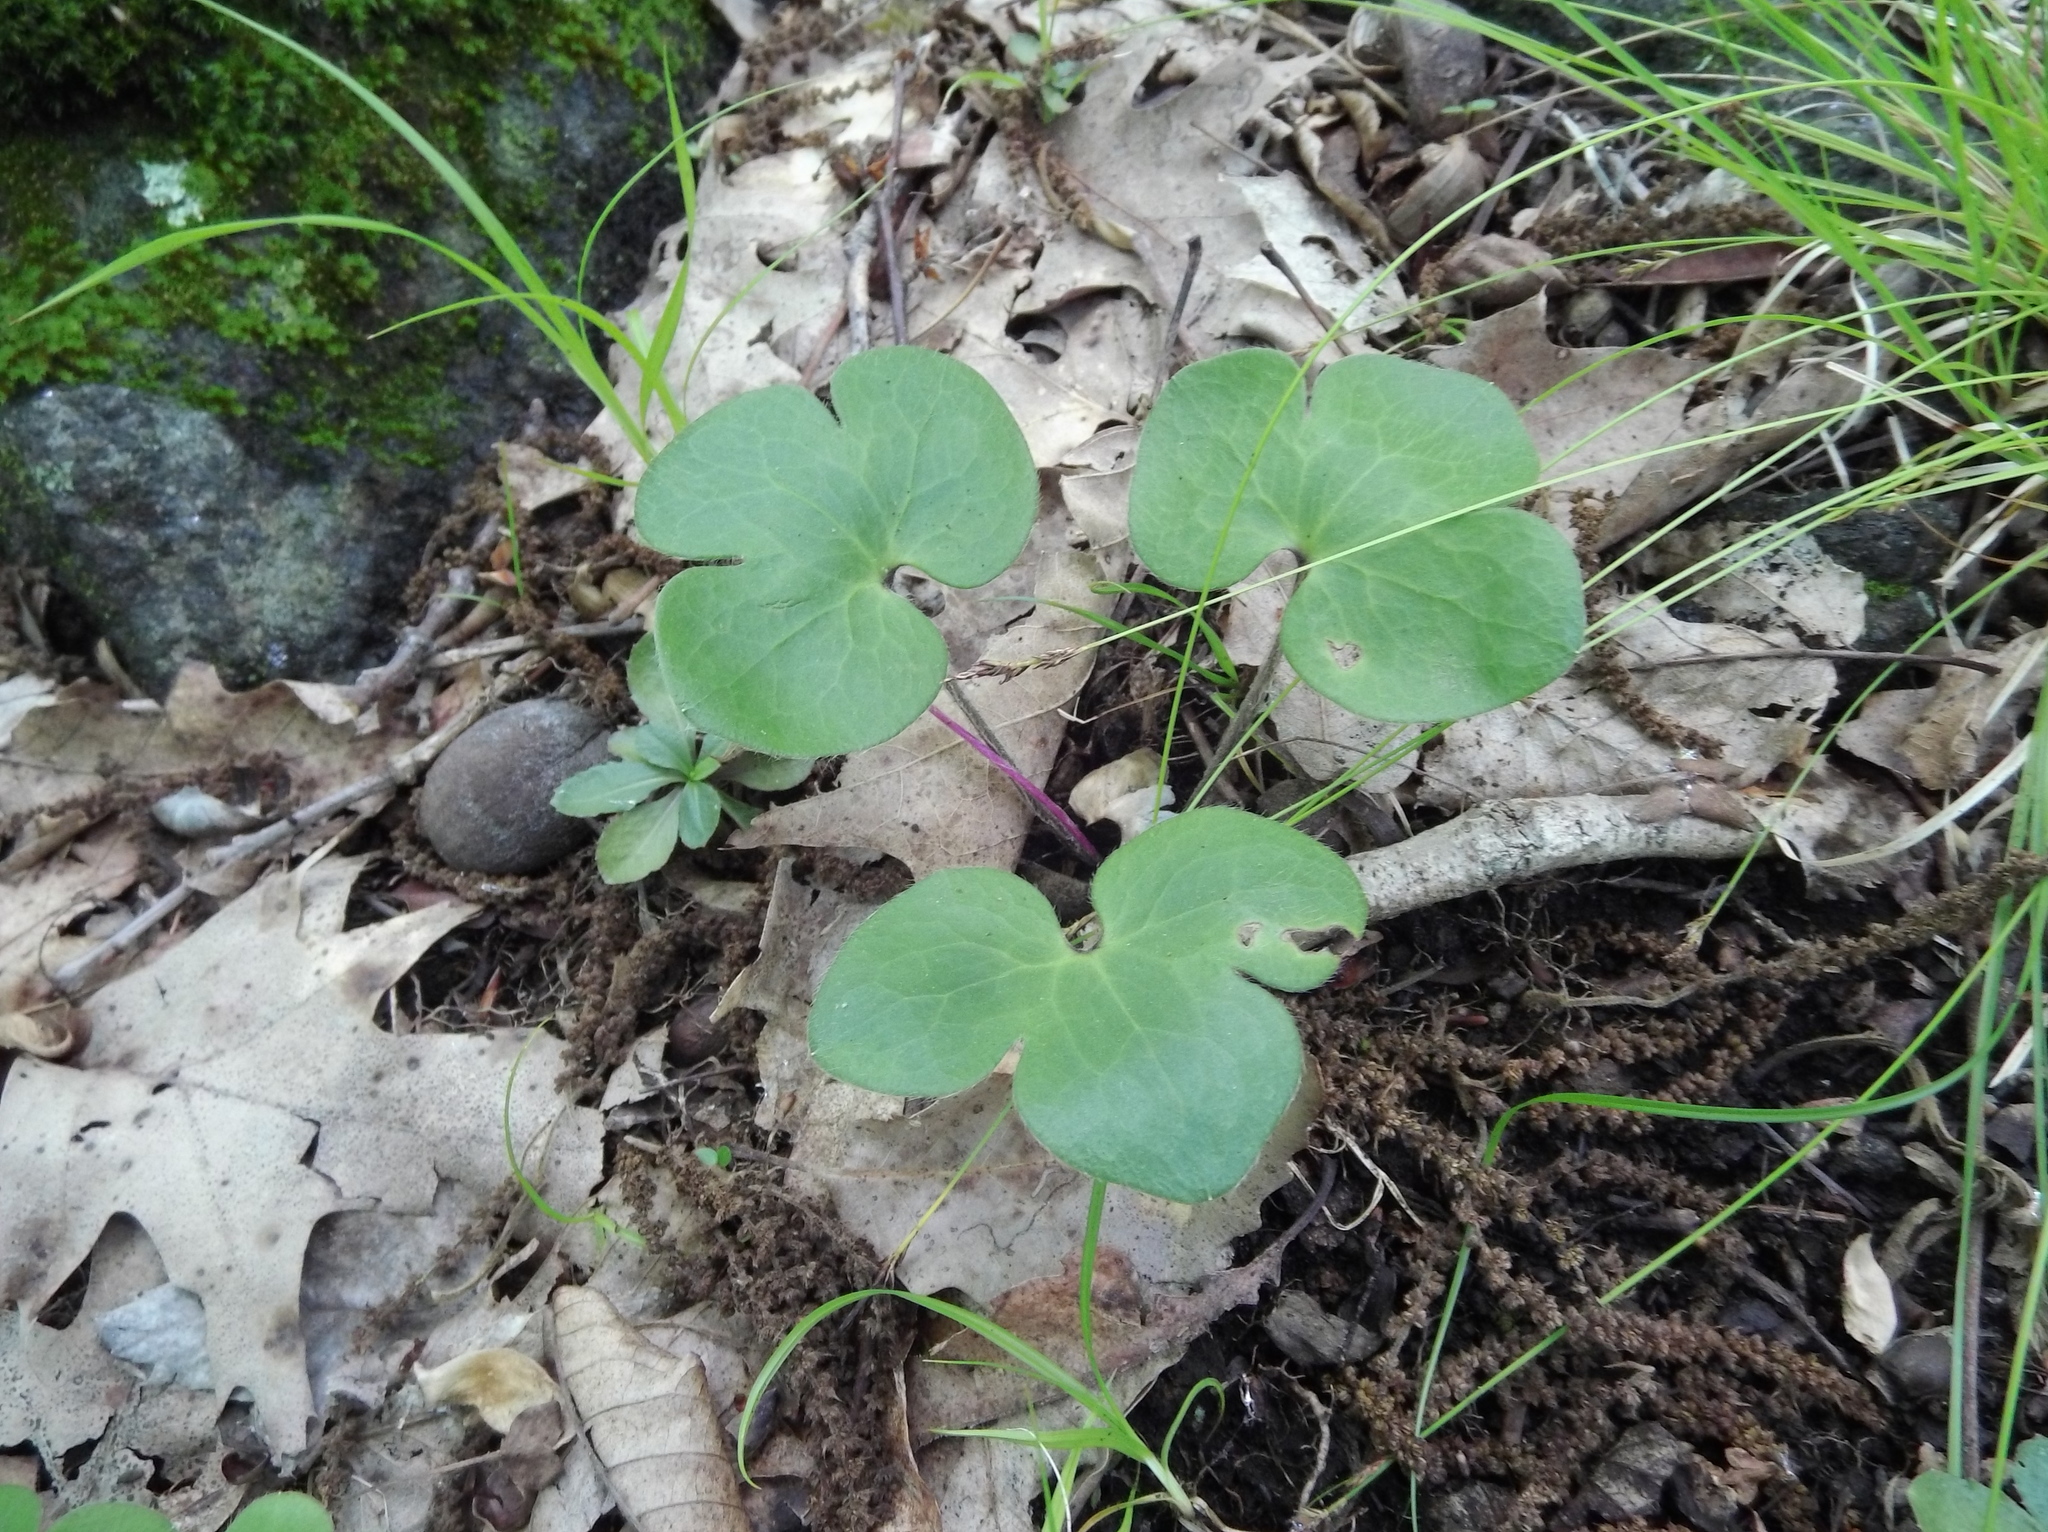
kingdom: Plantae
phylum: Tracheophyta
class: Magnoliopsida
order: Ranunculales
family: Ranunculaceae
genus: Hepatica
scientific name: Hepatica americana
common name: American hepatica
